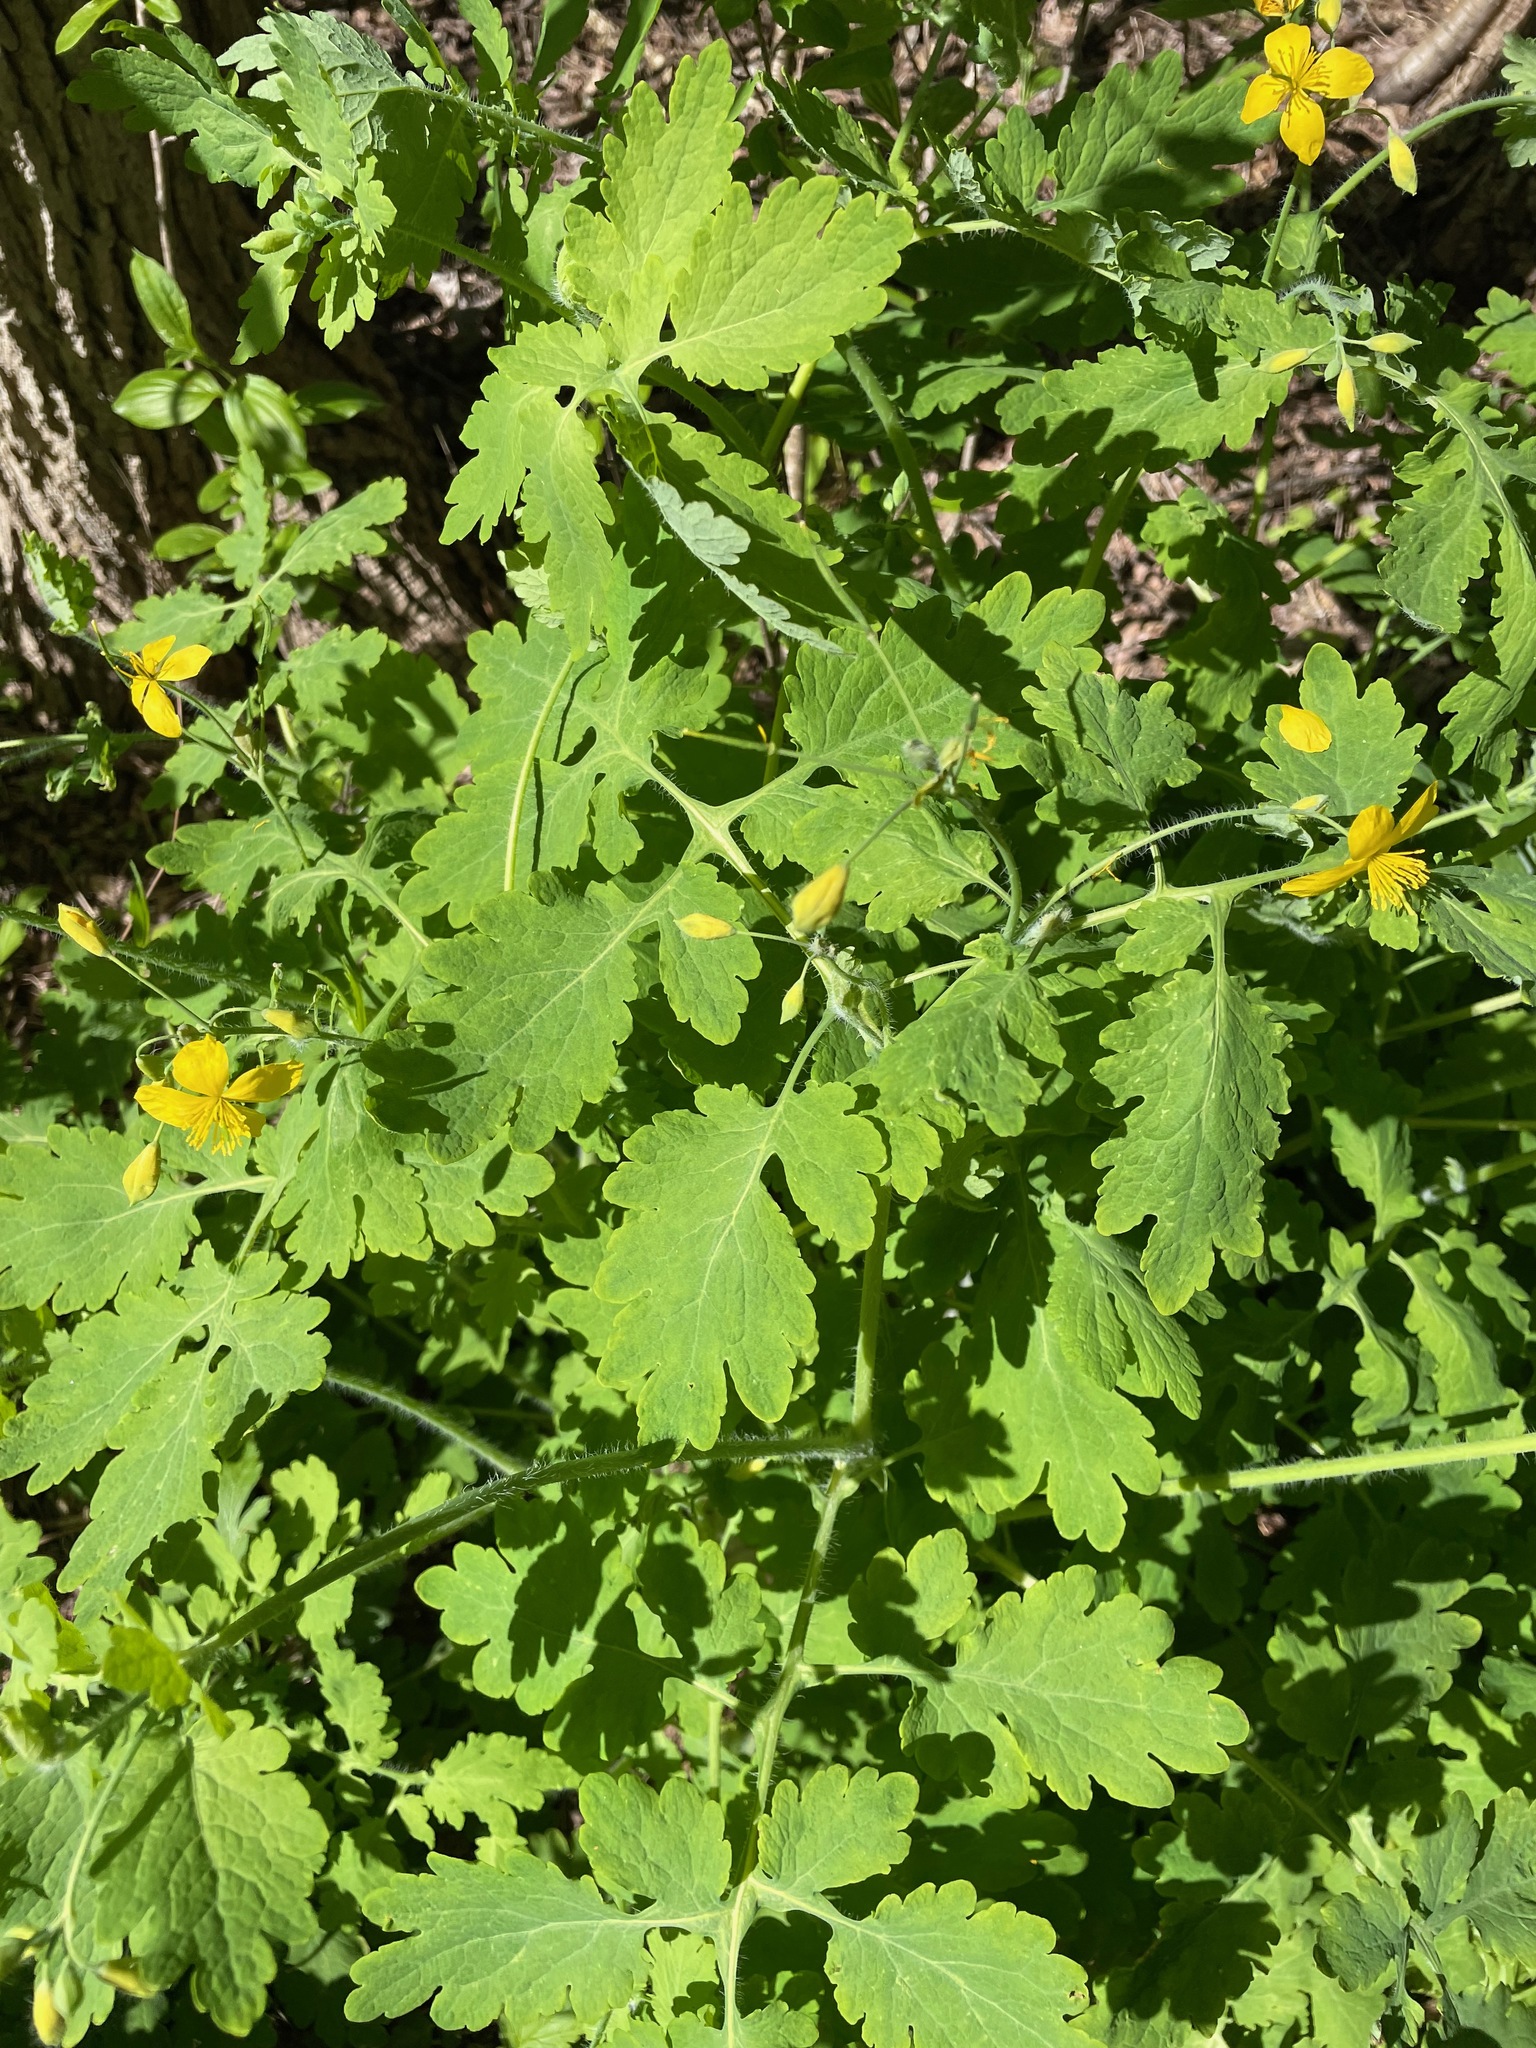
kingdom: Plantae
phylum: Tracheophyta
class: Magnoliopsida
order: Ranunculales
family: Papaveraceae
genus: Chelidonium
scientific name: Chelidonium majus
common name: Greater celandine
